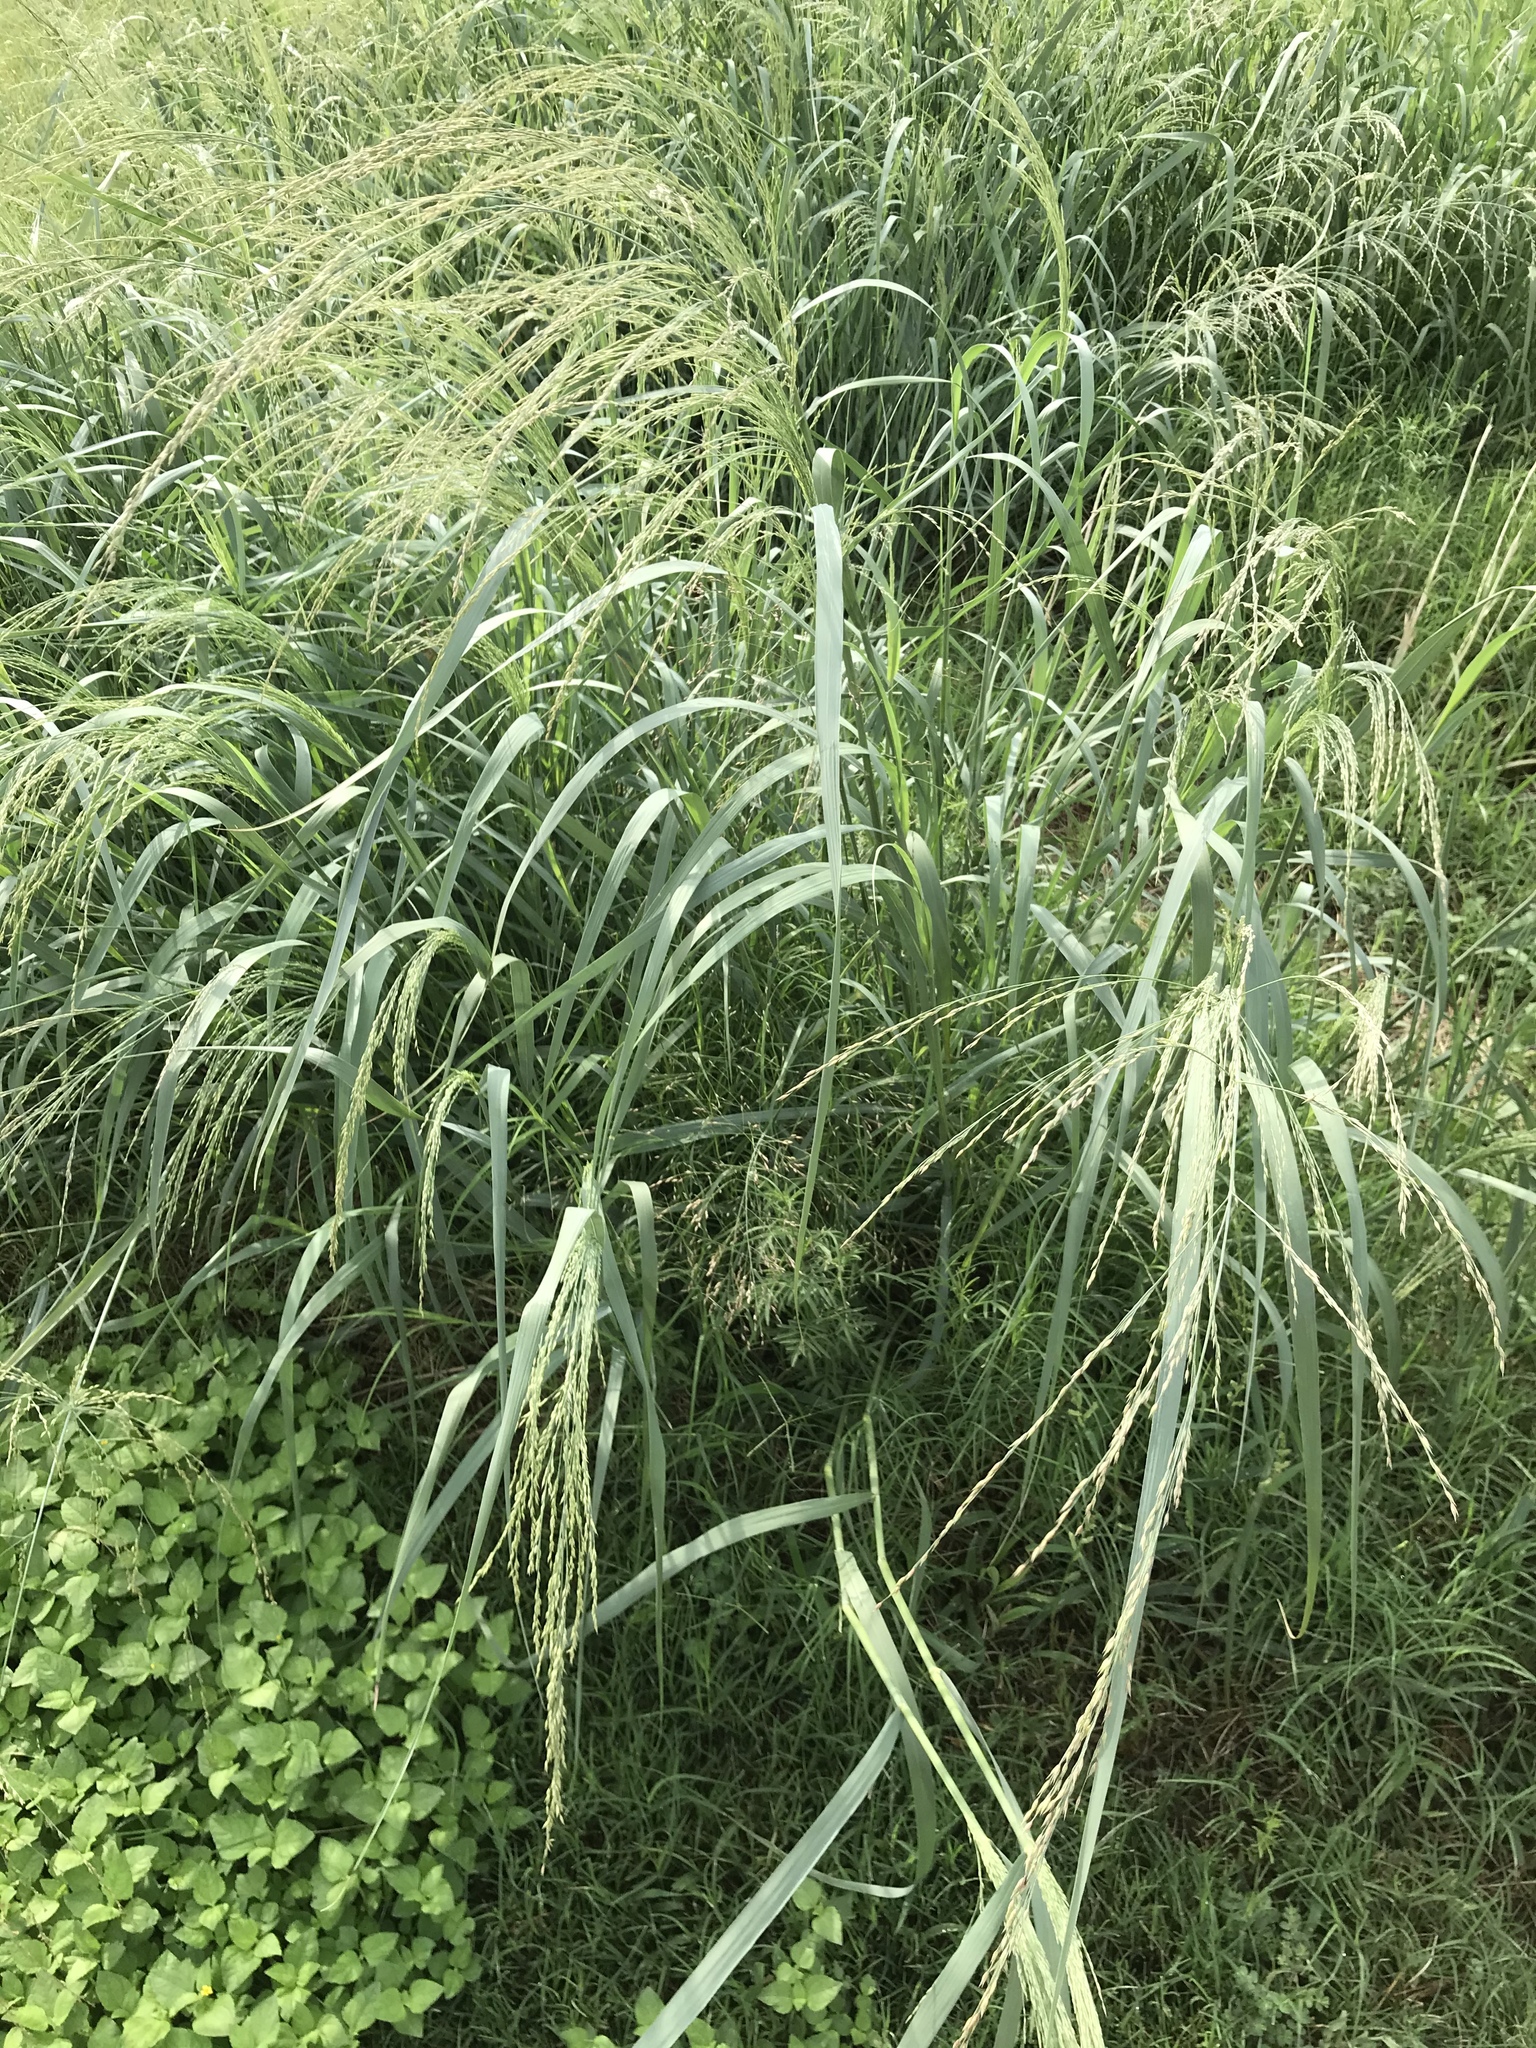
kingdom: Plantae
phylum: Tracheophyta
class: Liliopsida
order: Poales
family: Poaceae
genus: Panicum
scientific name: Panicum virgatum
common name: Switchgrass
